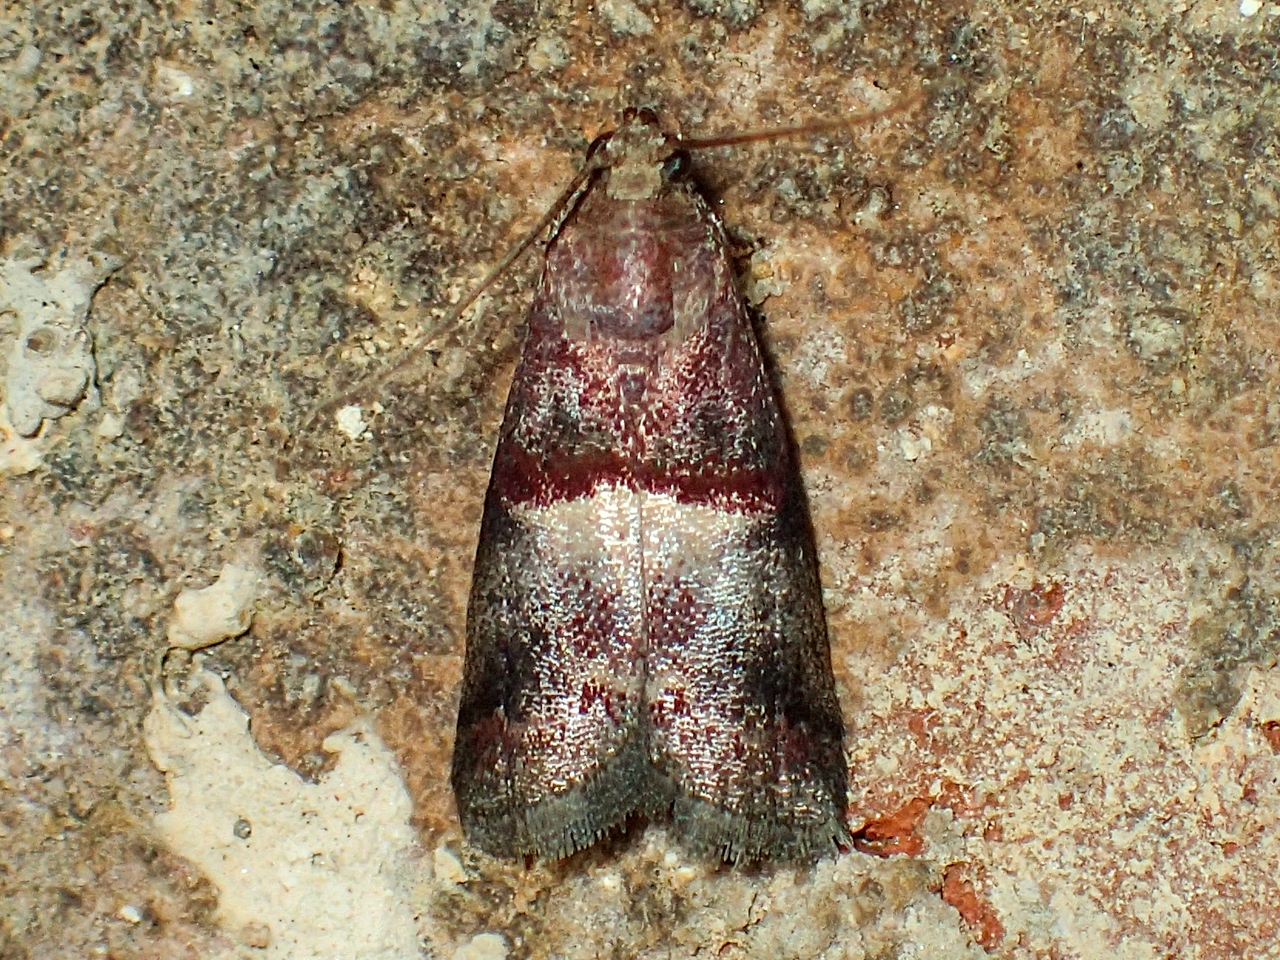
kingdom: Animalia
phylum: Arthropoda
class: Insecta
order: Lepidoptera
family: Pyralidae
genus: Acrobasis
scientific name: Acrobasis exsulella
